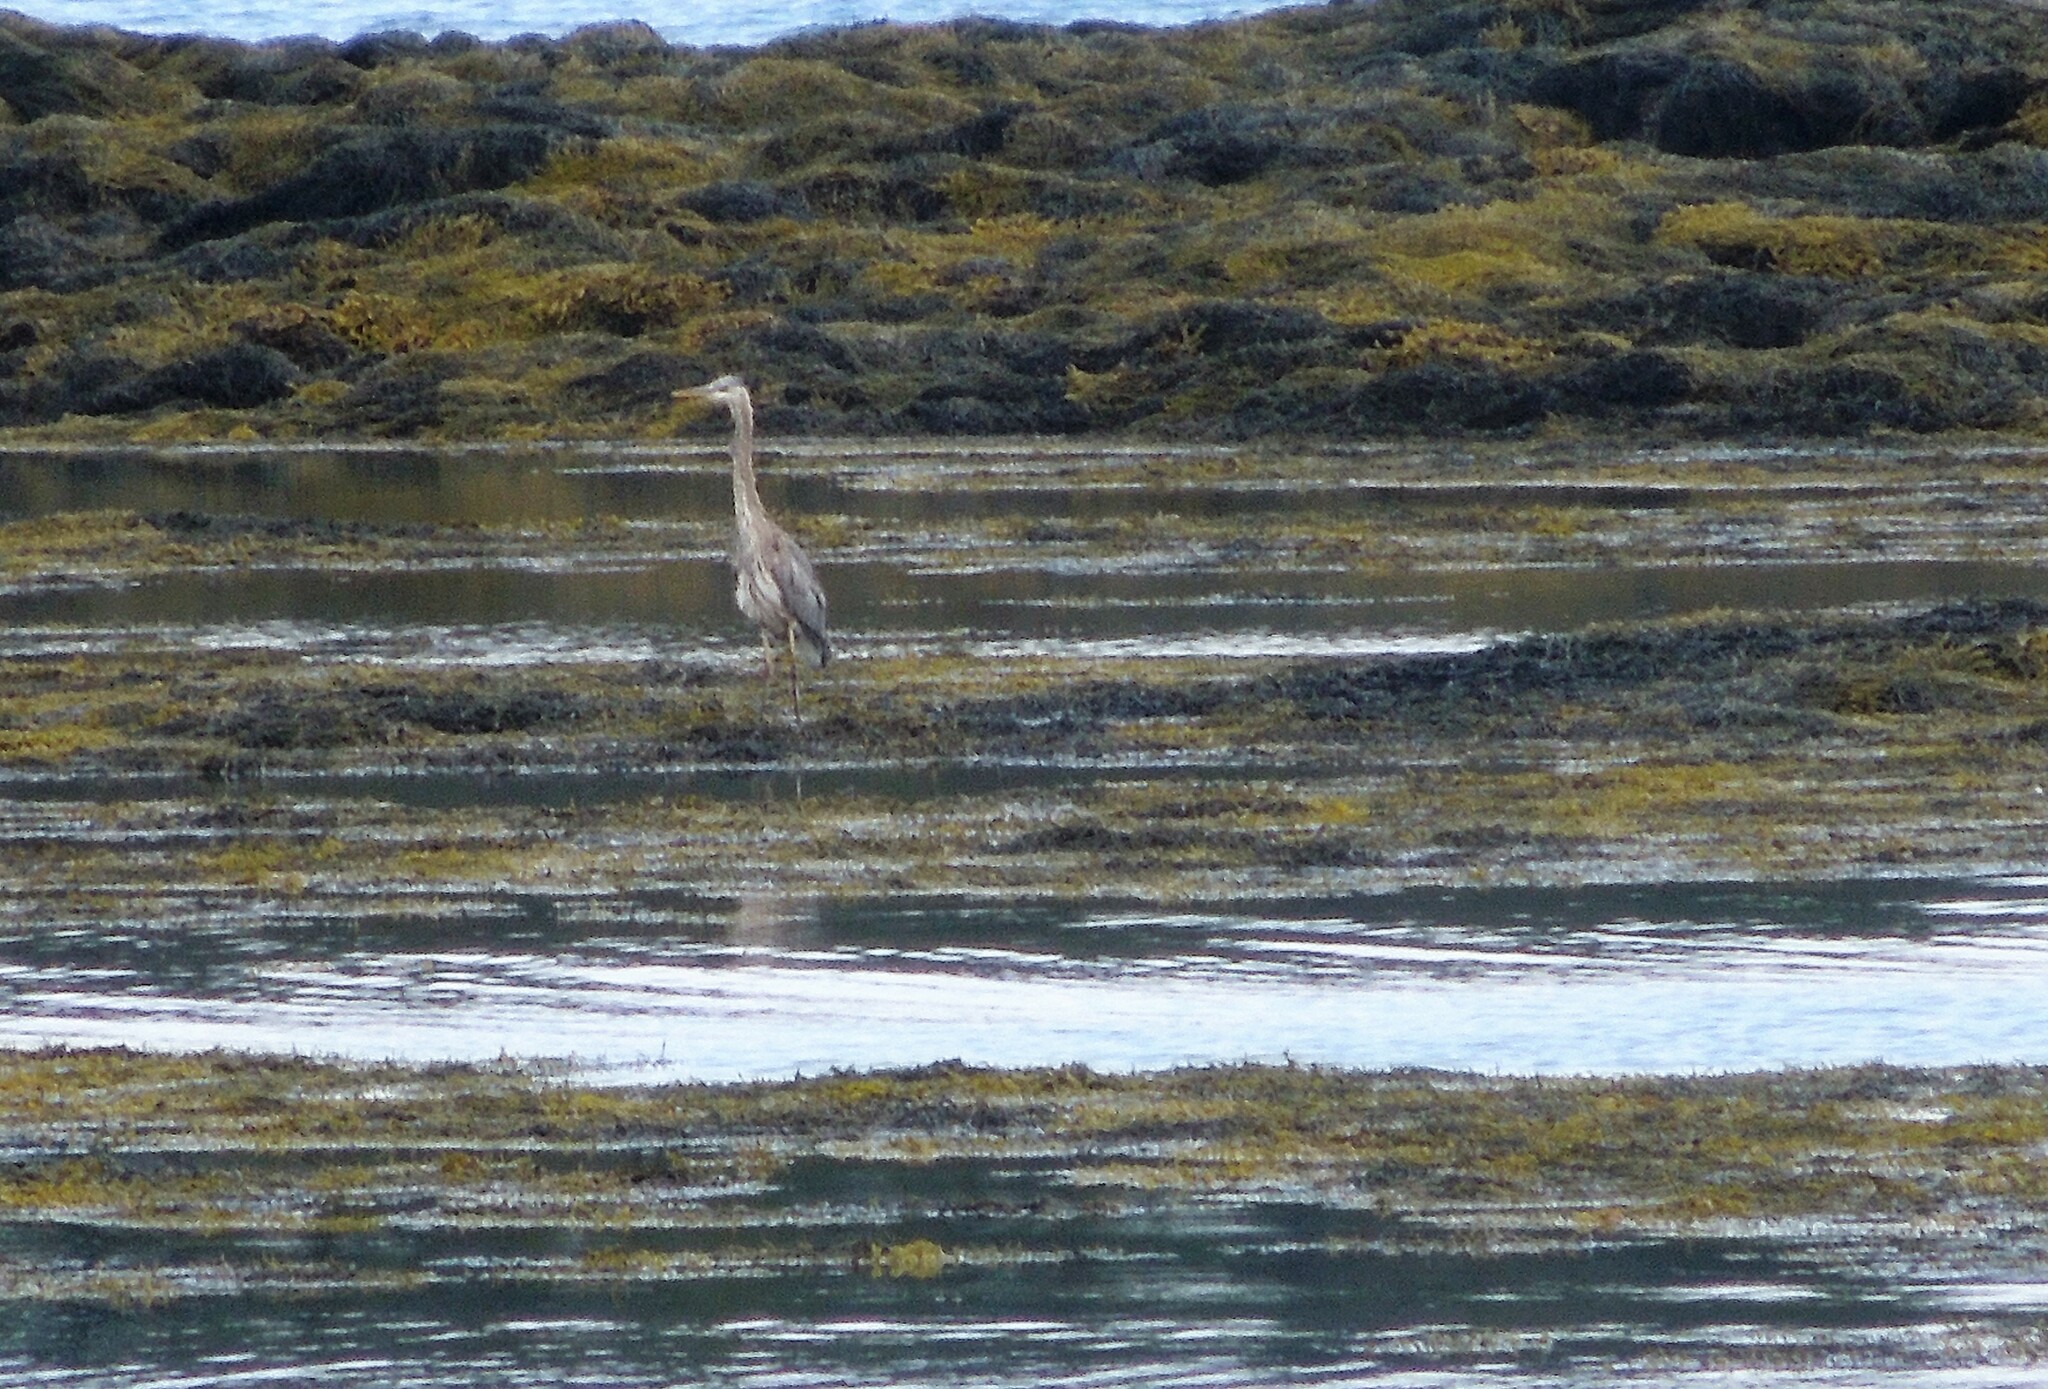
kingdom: Animalia
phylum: Chordata
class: Aves
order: Pelecaniformes
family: Ardeidae
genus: Ardea
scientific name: Ardea herodias
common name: Great blue heron
